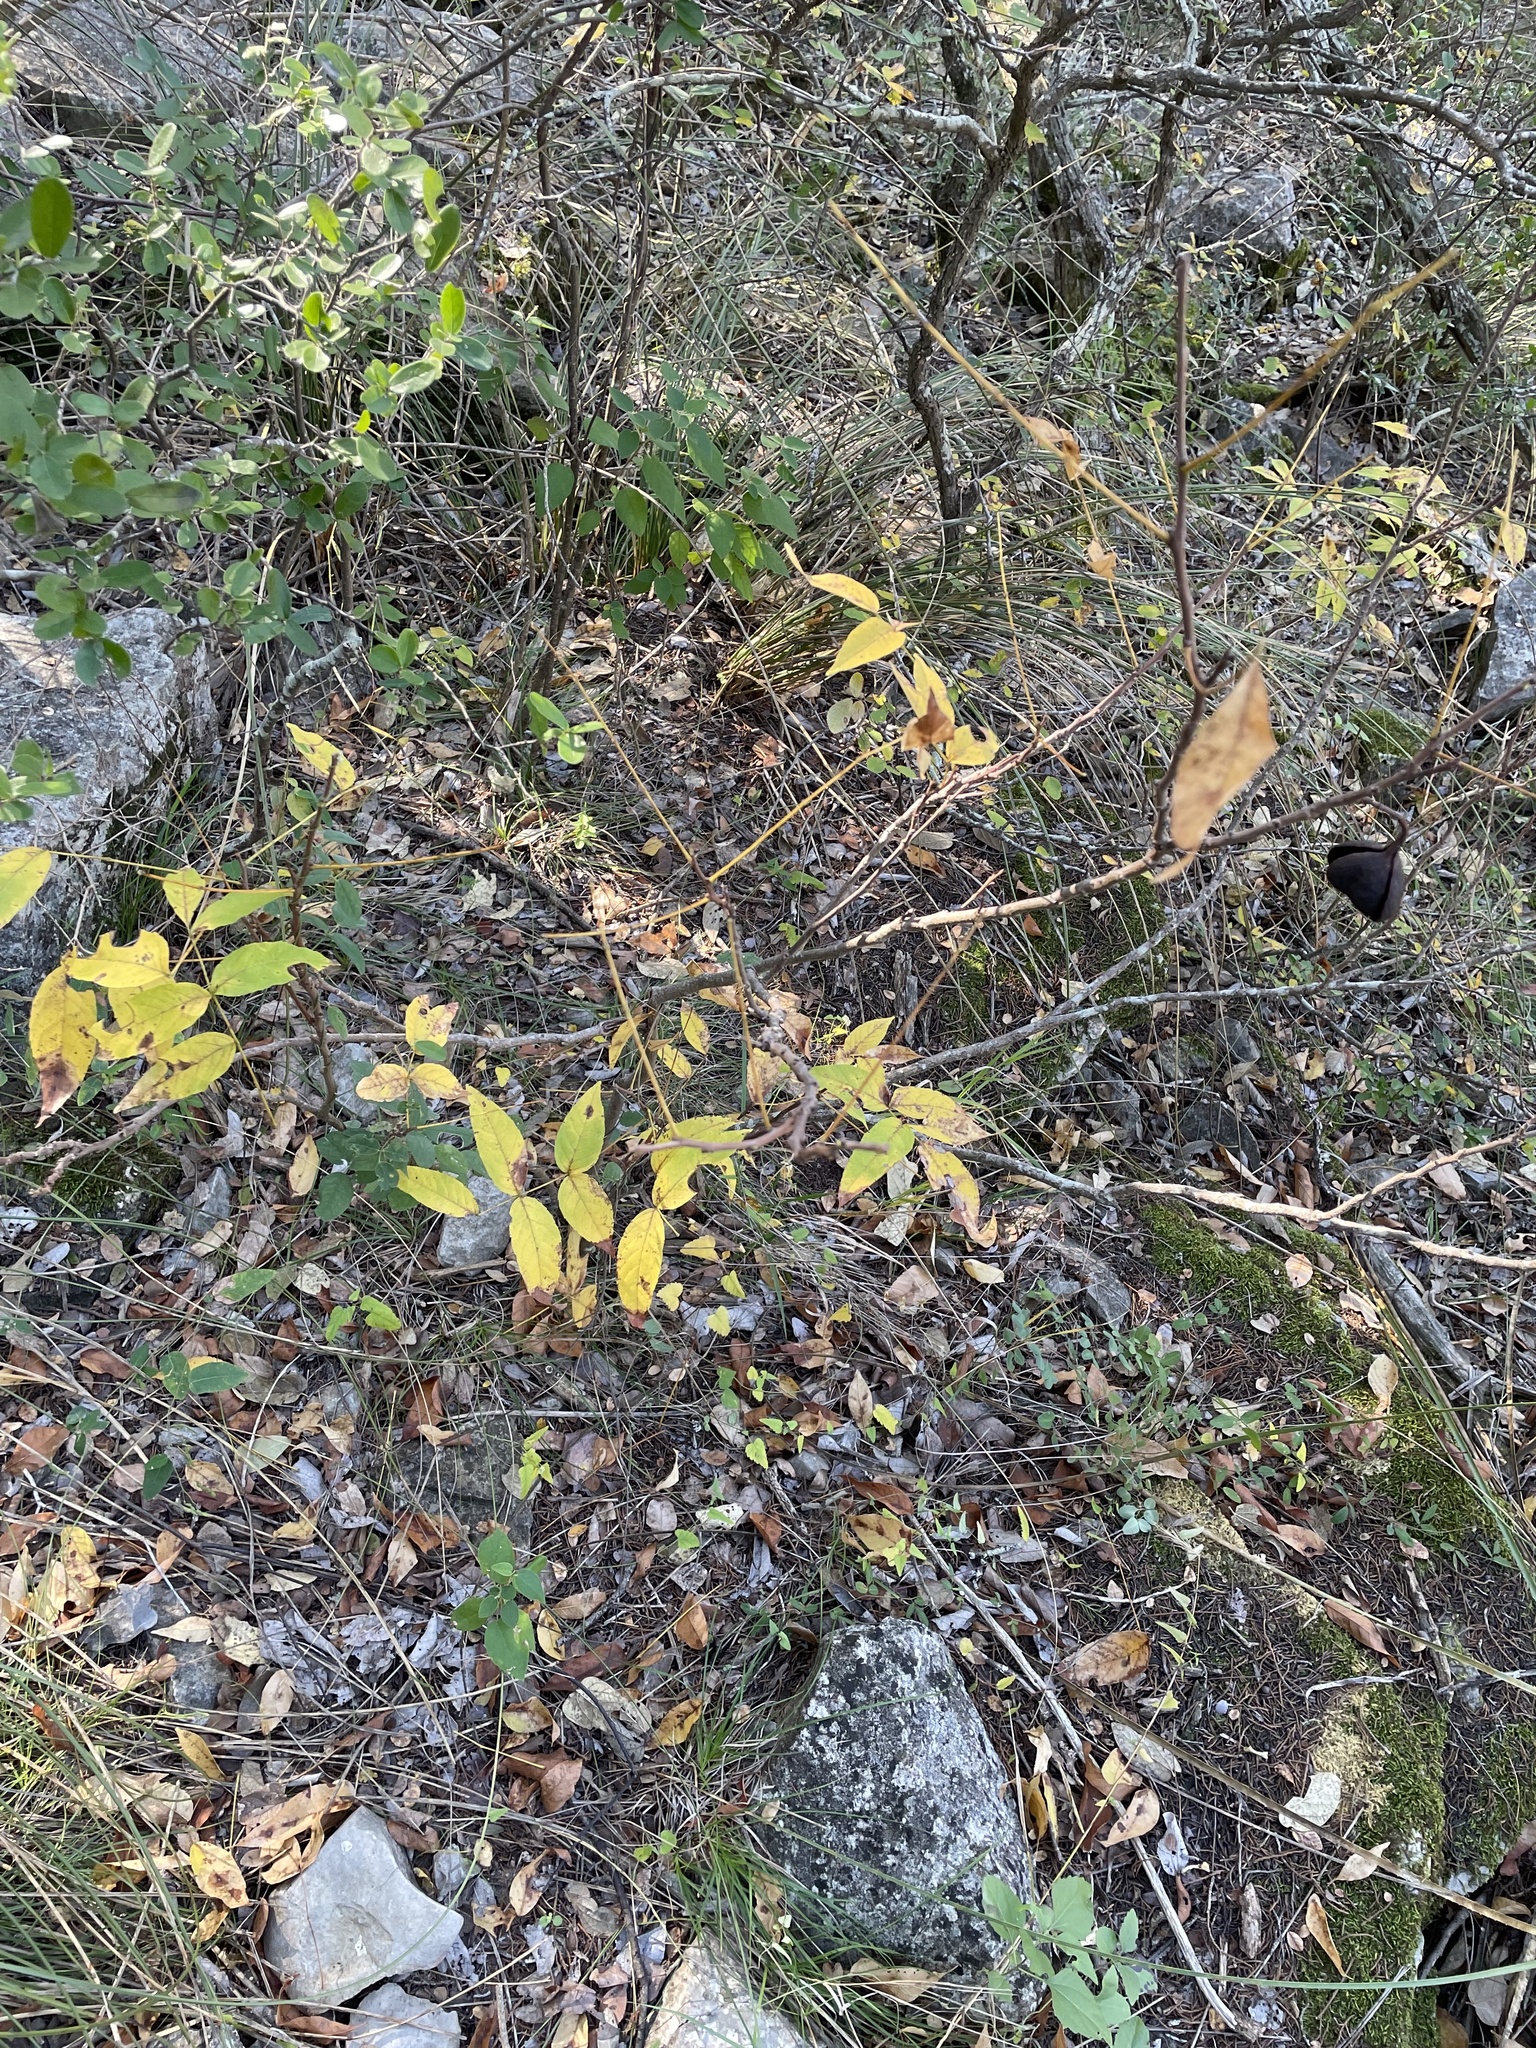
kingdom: Plantae
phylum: Tracheophyta
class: Magnoliopsida
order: Sapindales
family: Sapindaceae
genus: Ungnadia
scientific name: Ungnadia speciosa
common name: Texas-buckeye
